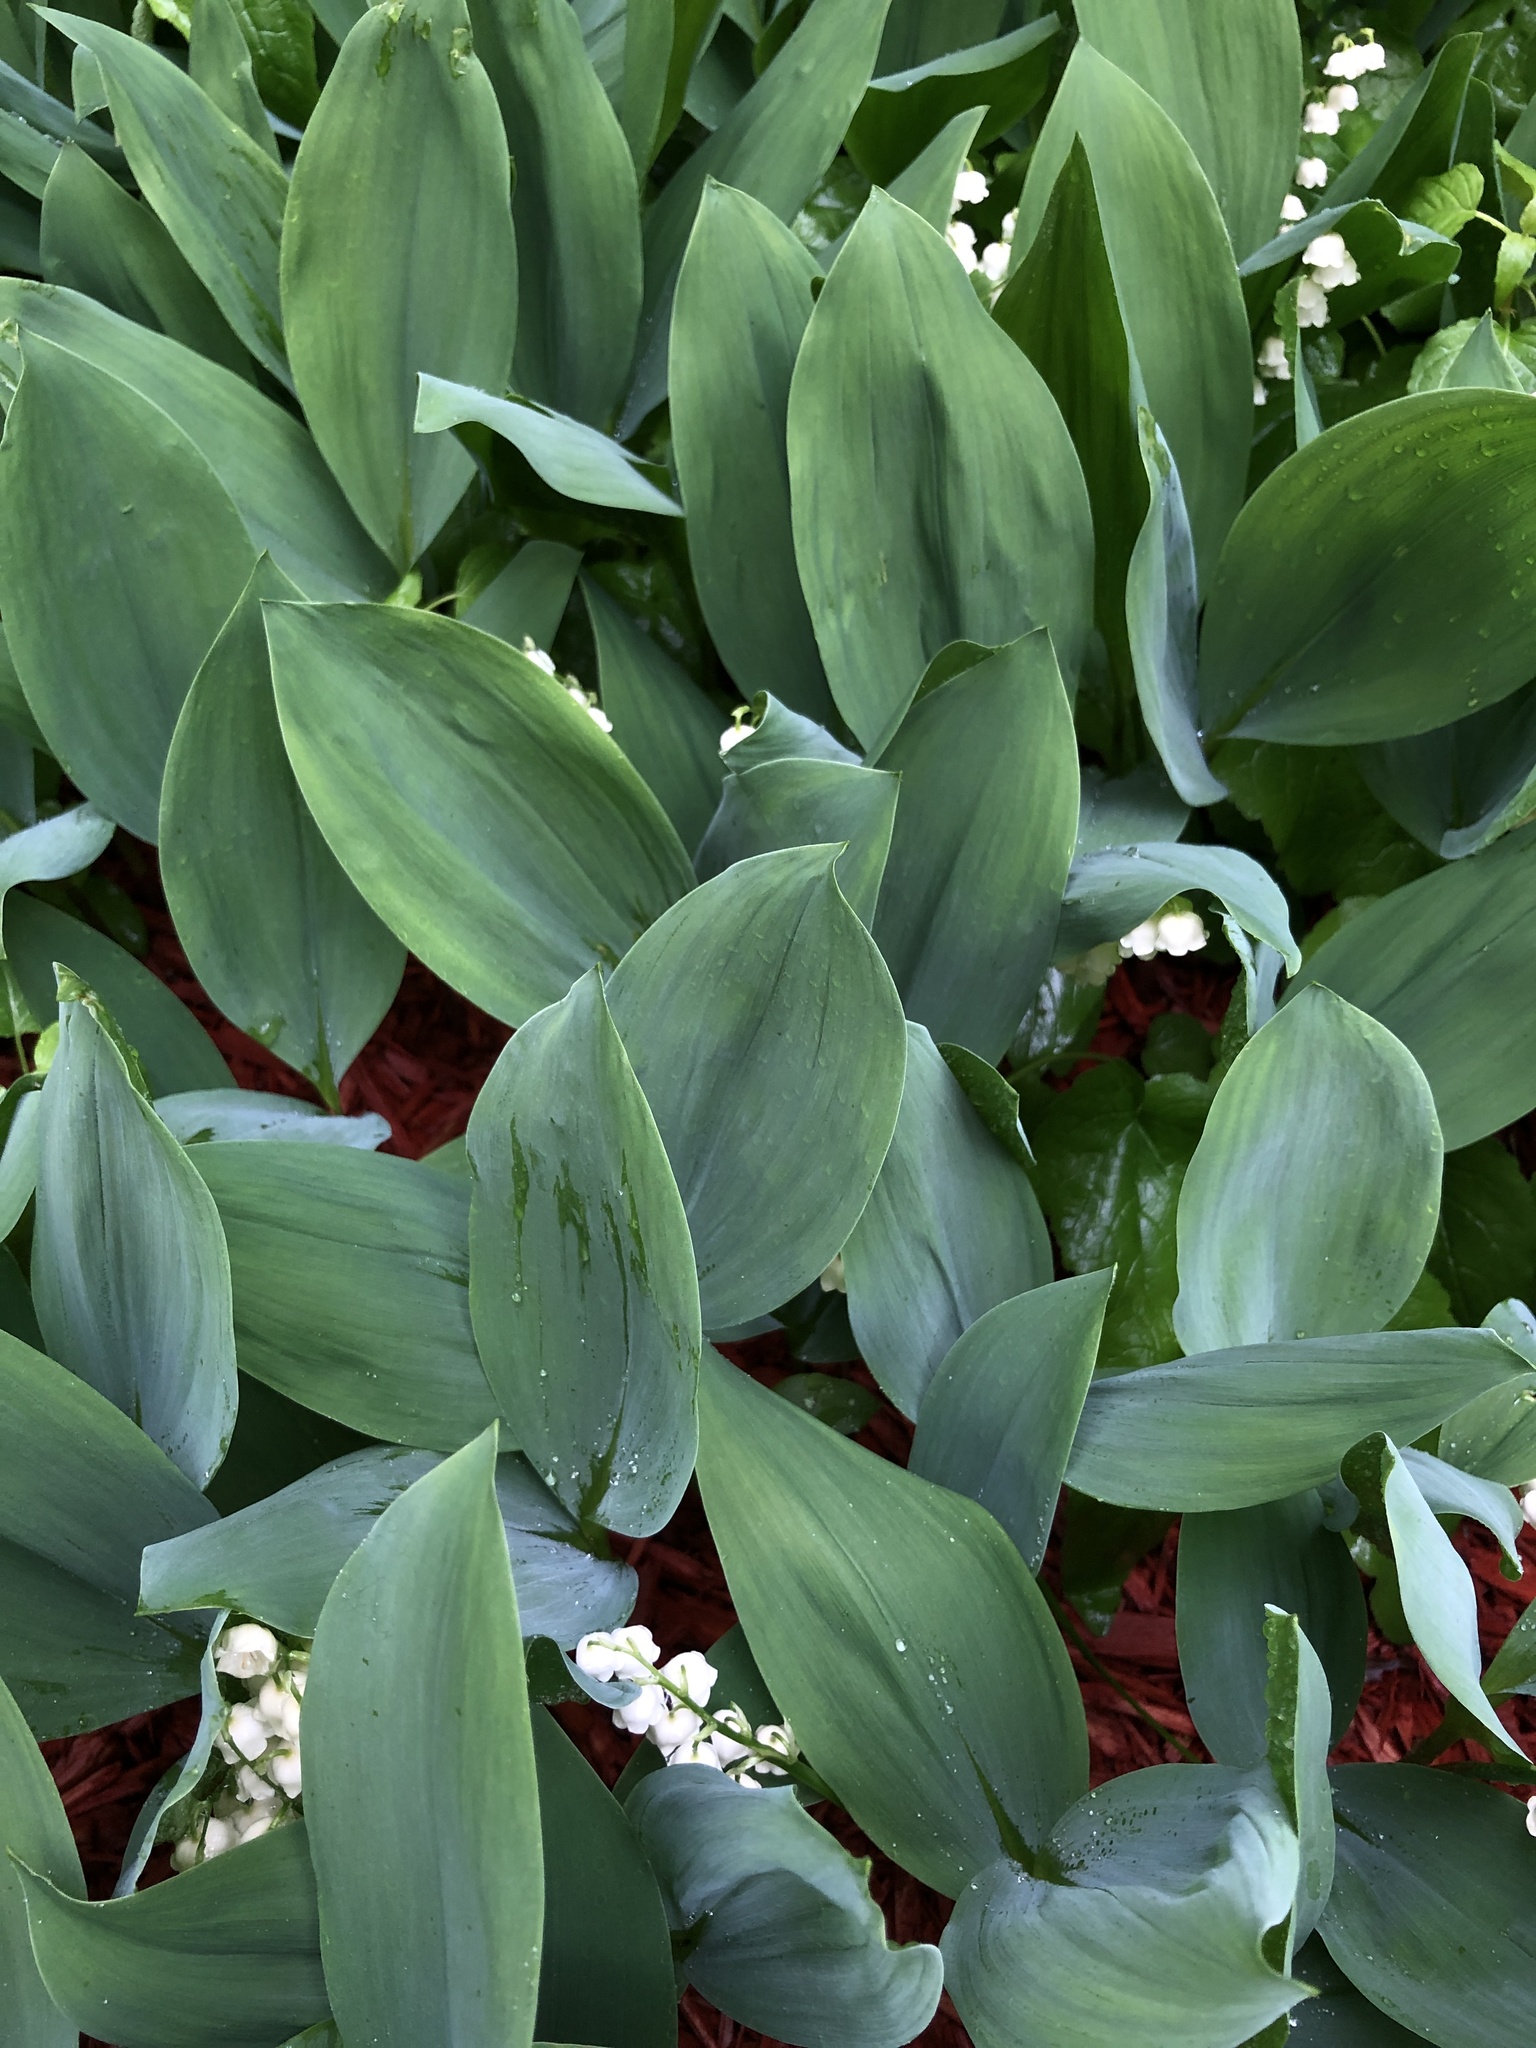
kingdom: Plantae
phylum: Tracheophyta
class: Liliopsida
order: Asparagales
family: Asparagaceae
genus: Convallaria
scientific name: Convallaria majalis
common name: Lily-of-the-valley
